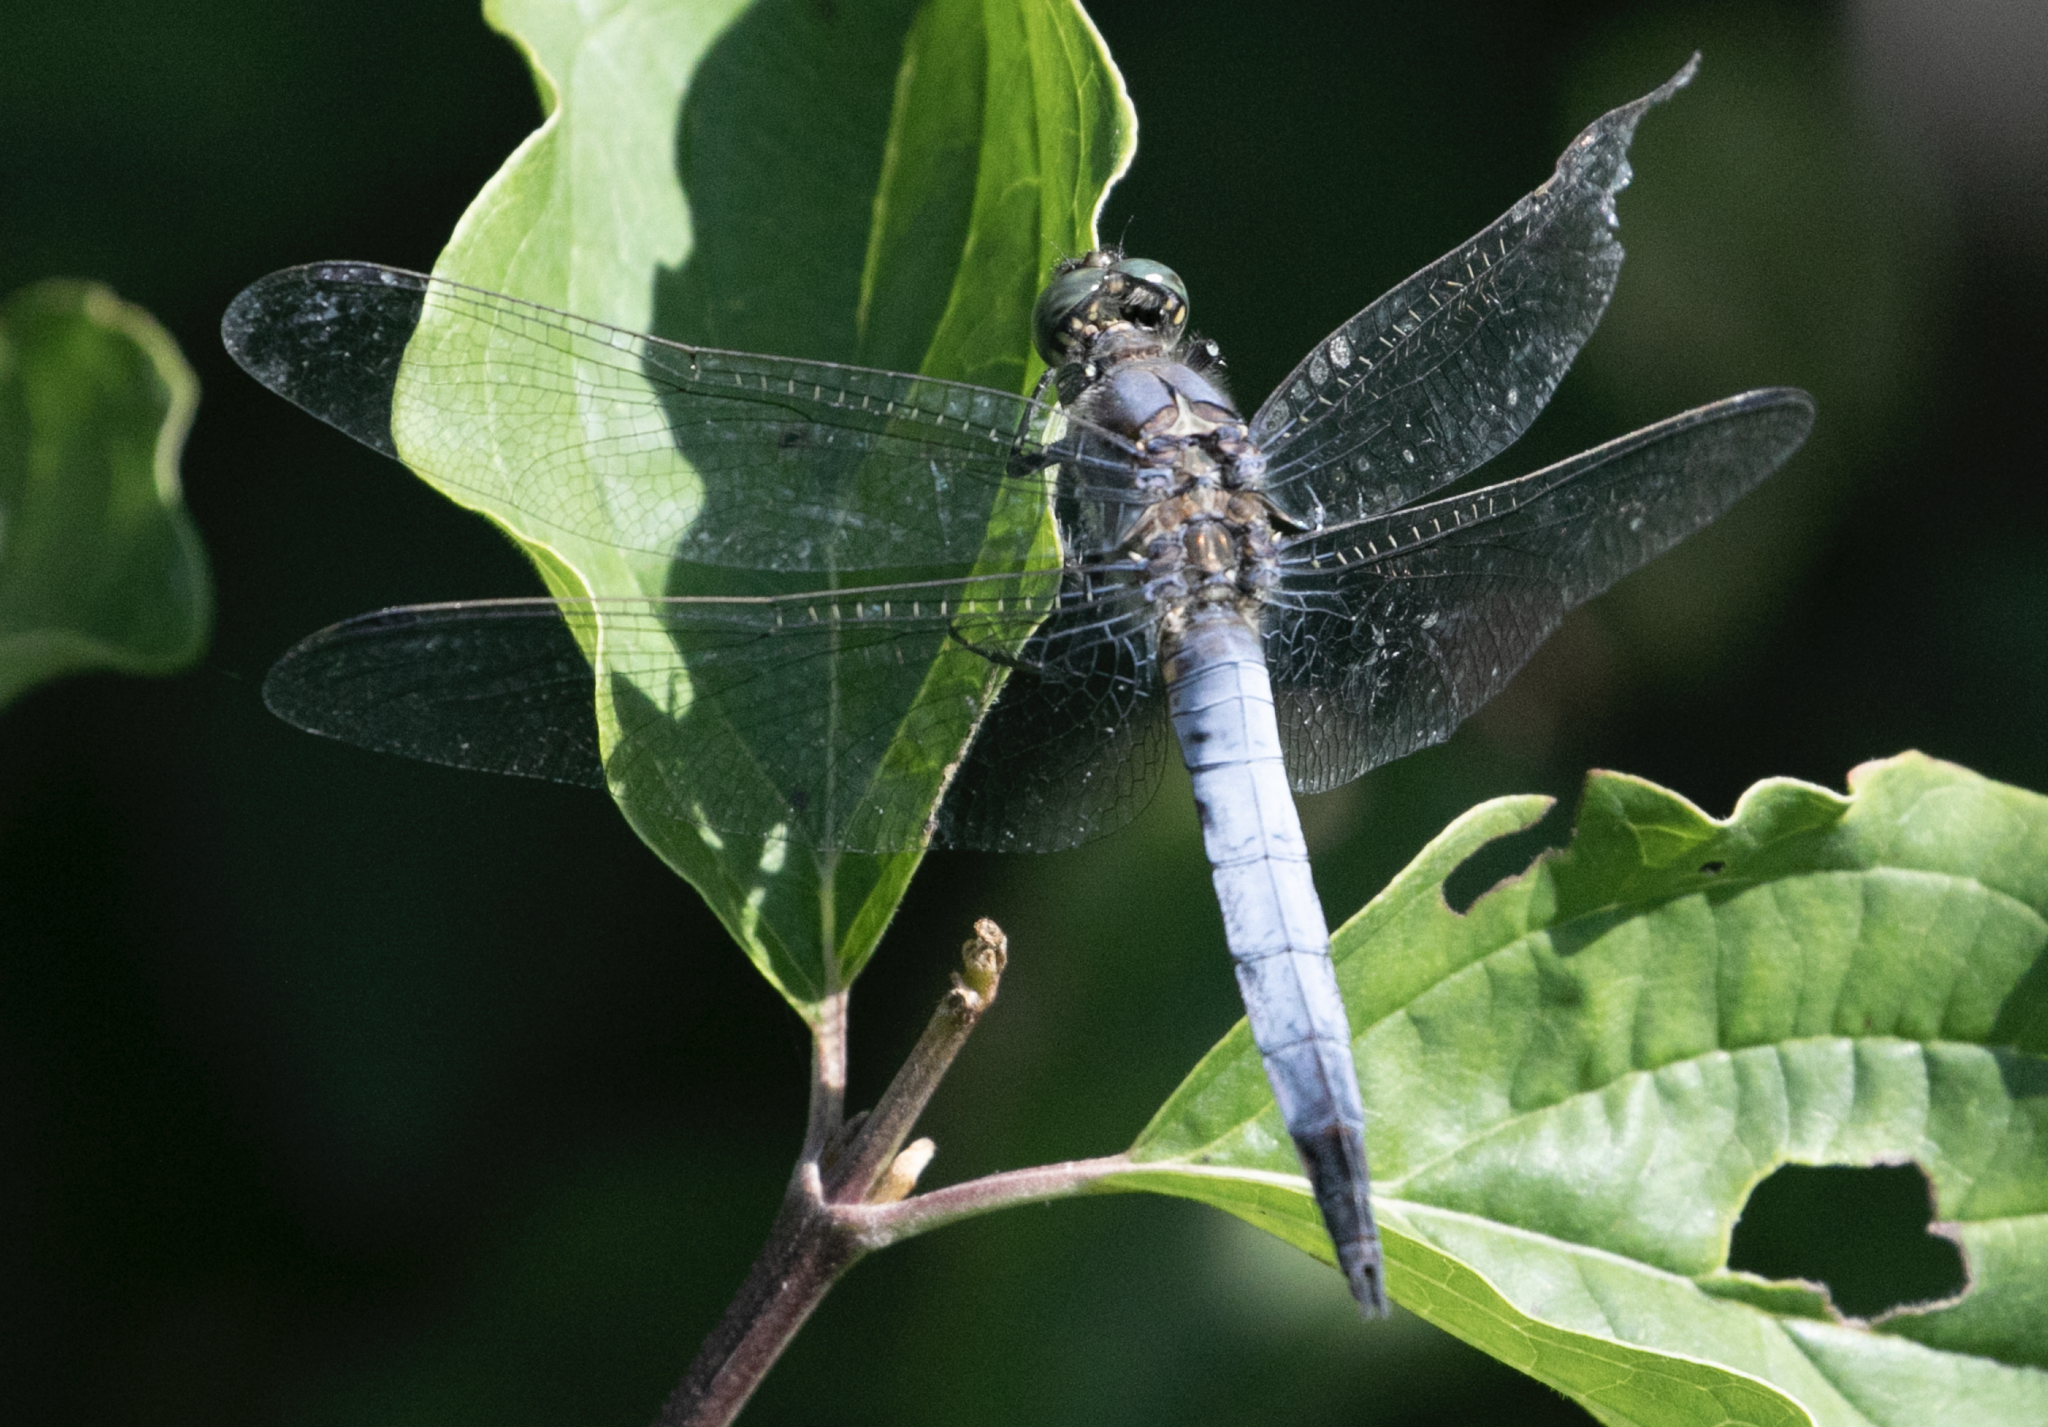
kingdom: Animalia
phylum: Arthropoda
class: Insecta
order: Odonata
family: Libellulidae
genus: Orthetrum
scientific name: Orthetrum cancellatum
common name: Black-tailed skimmer
